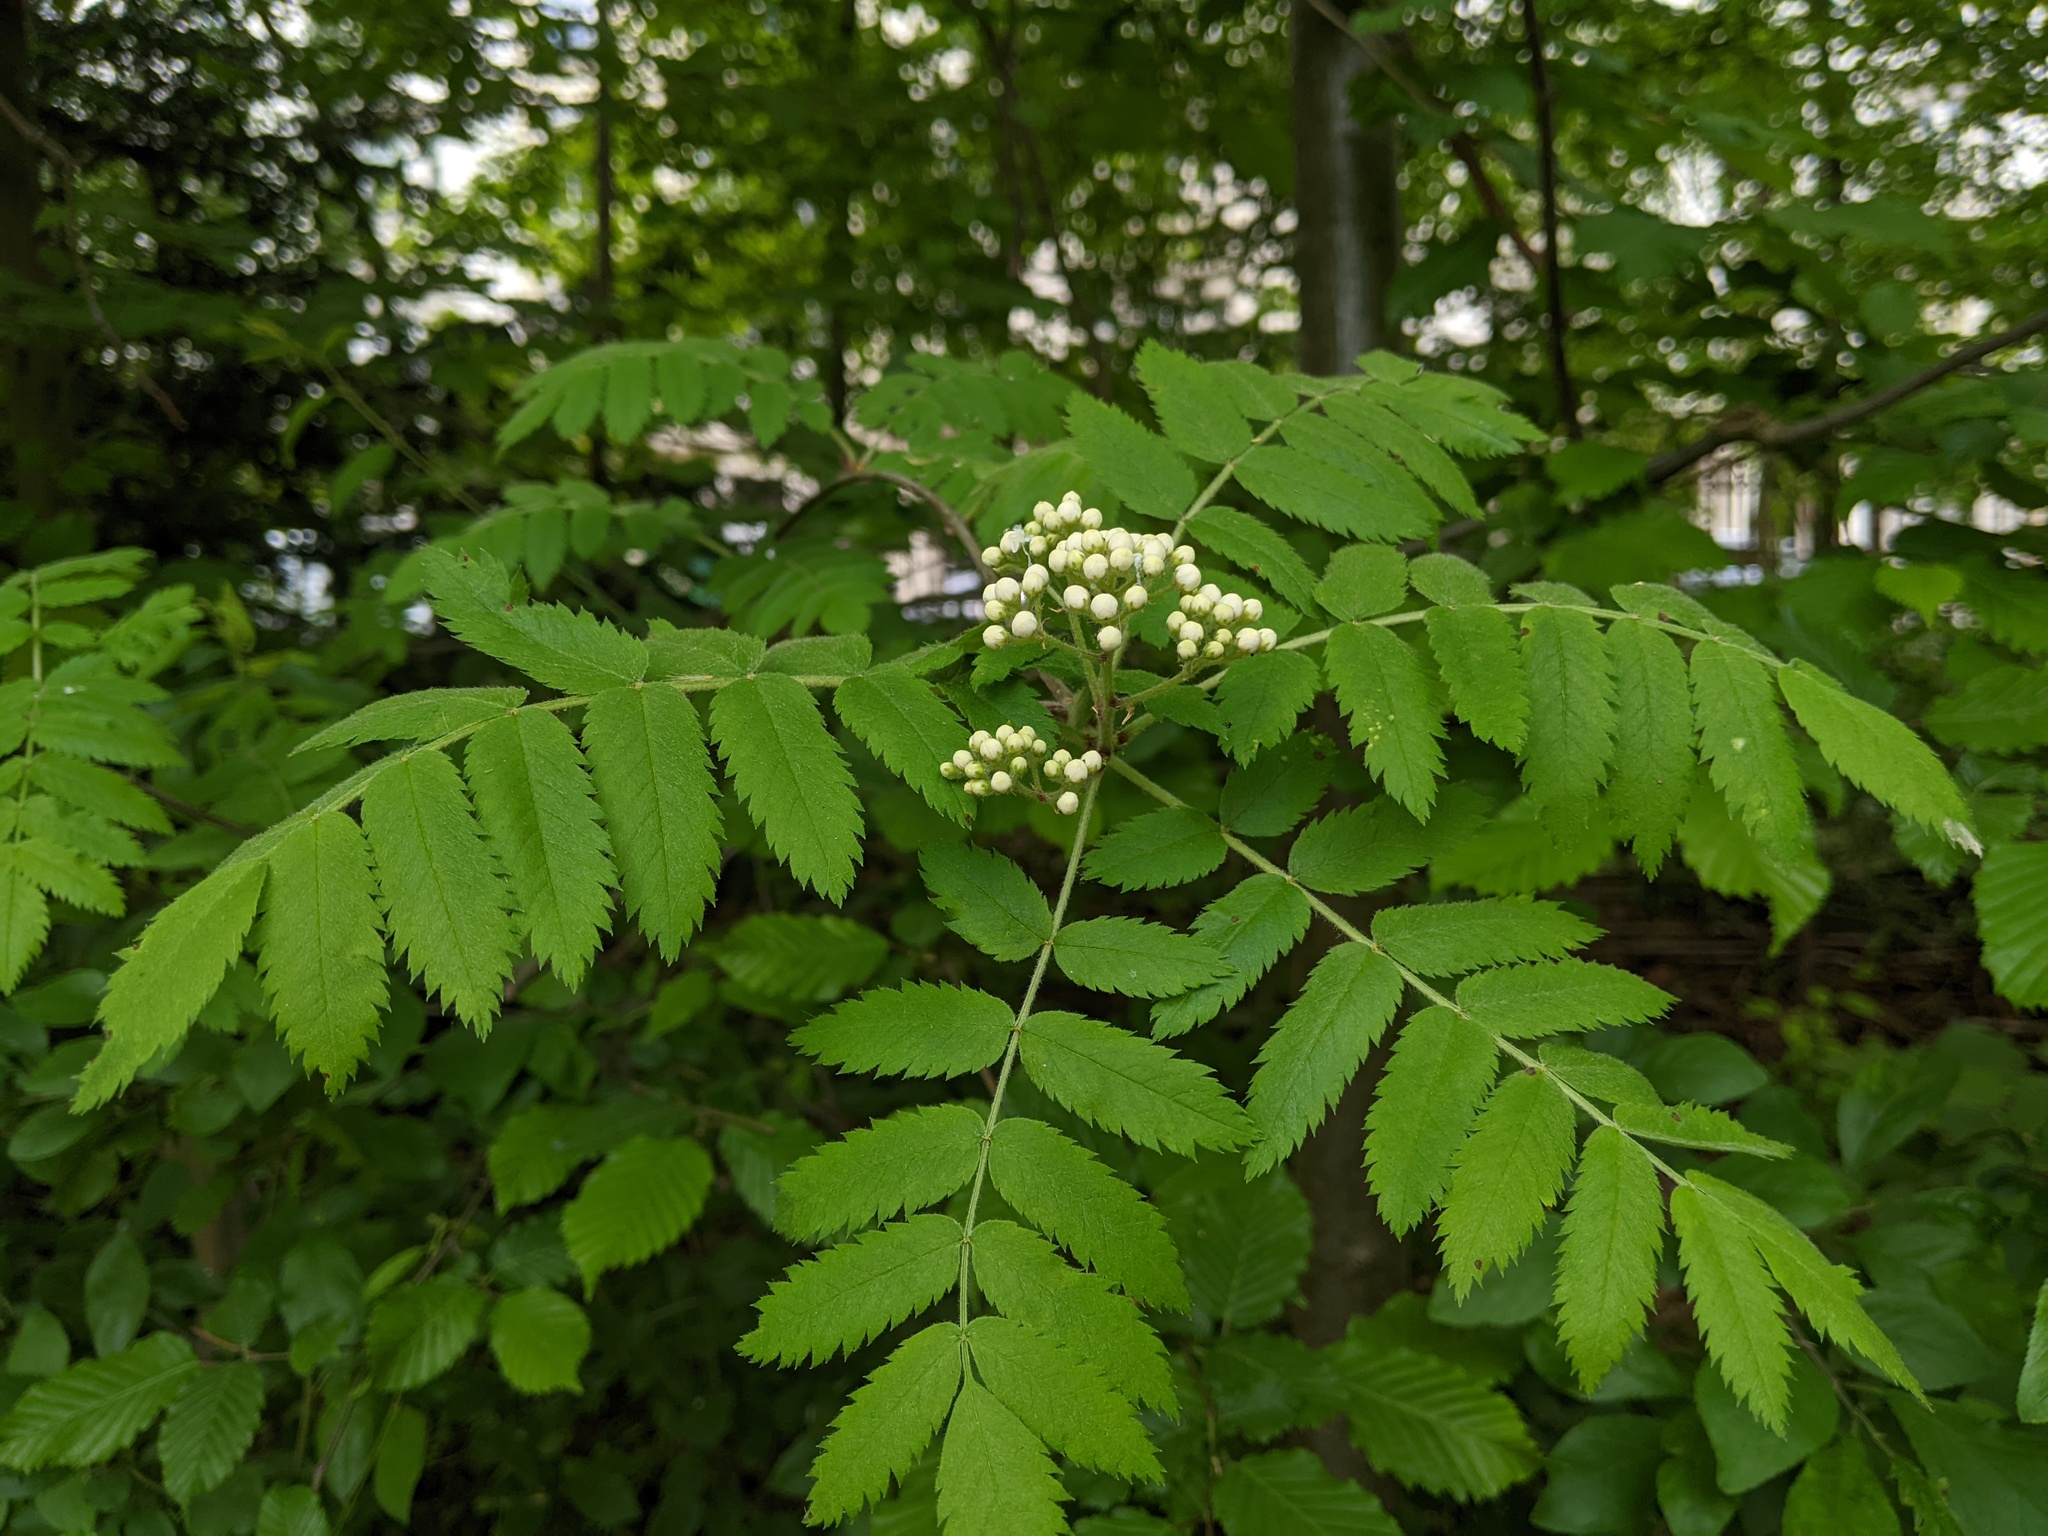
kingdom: Plantae
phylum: Tracheophyta
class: Magnoliopsida
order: Rosales
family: Rosaceae
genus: Sorbus
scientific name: Sorbus aucuparia
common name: Rowan
